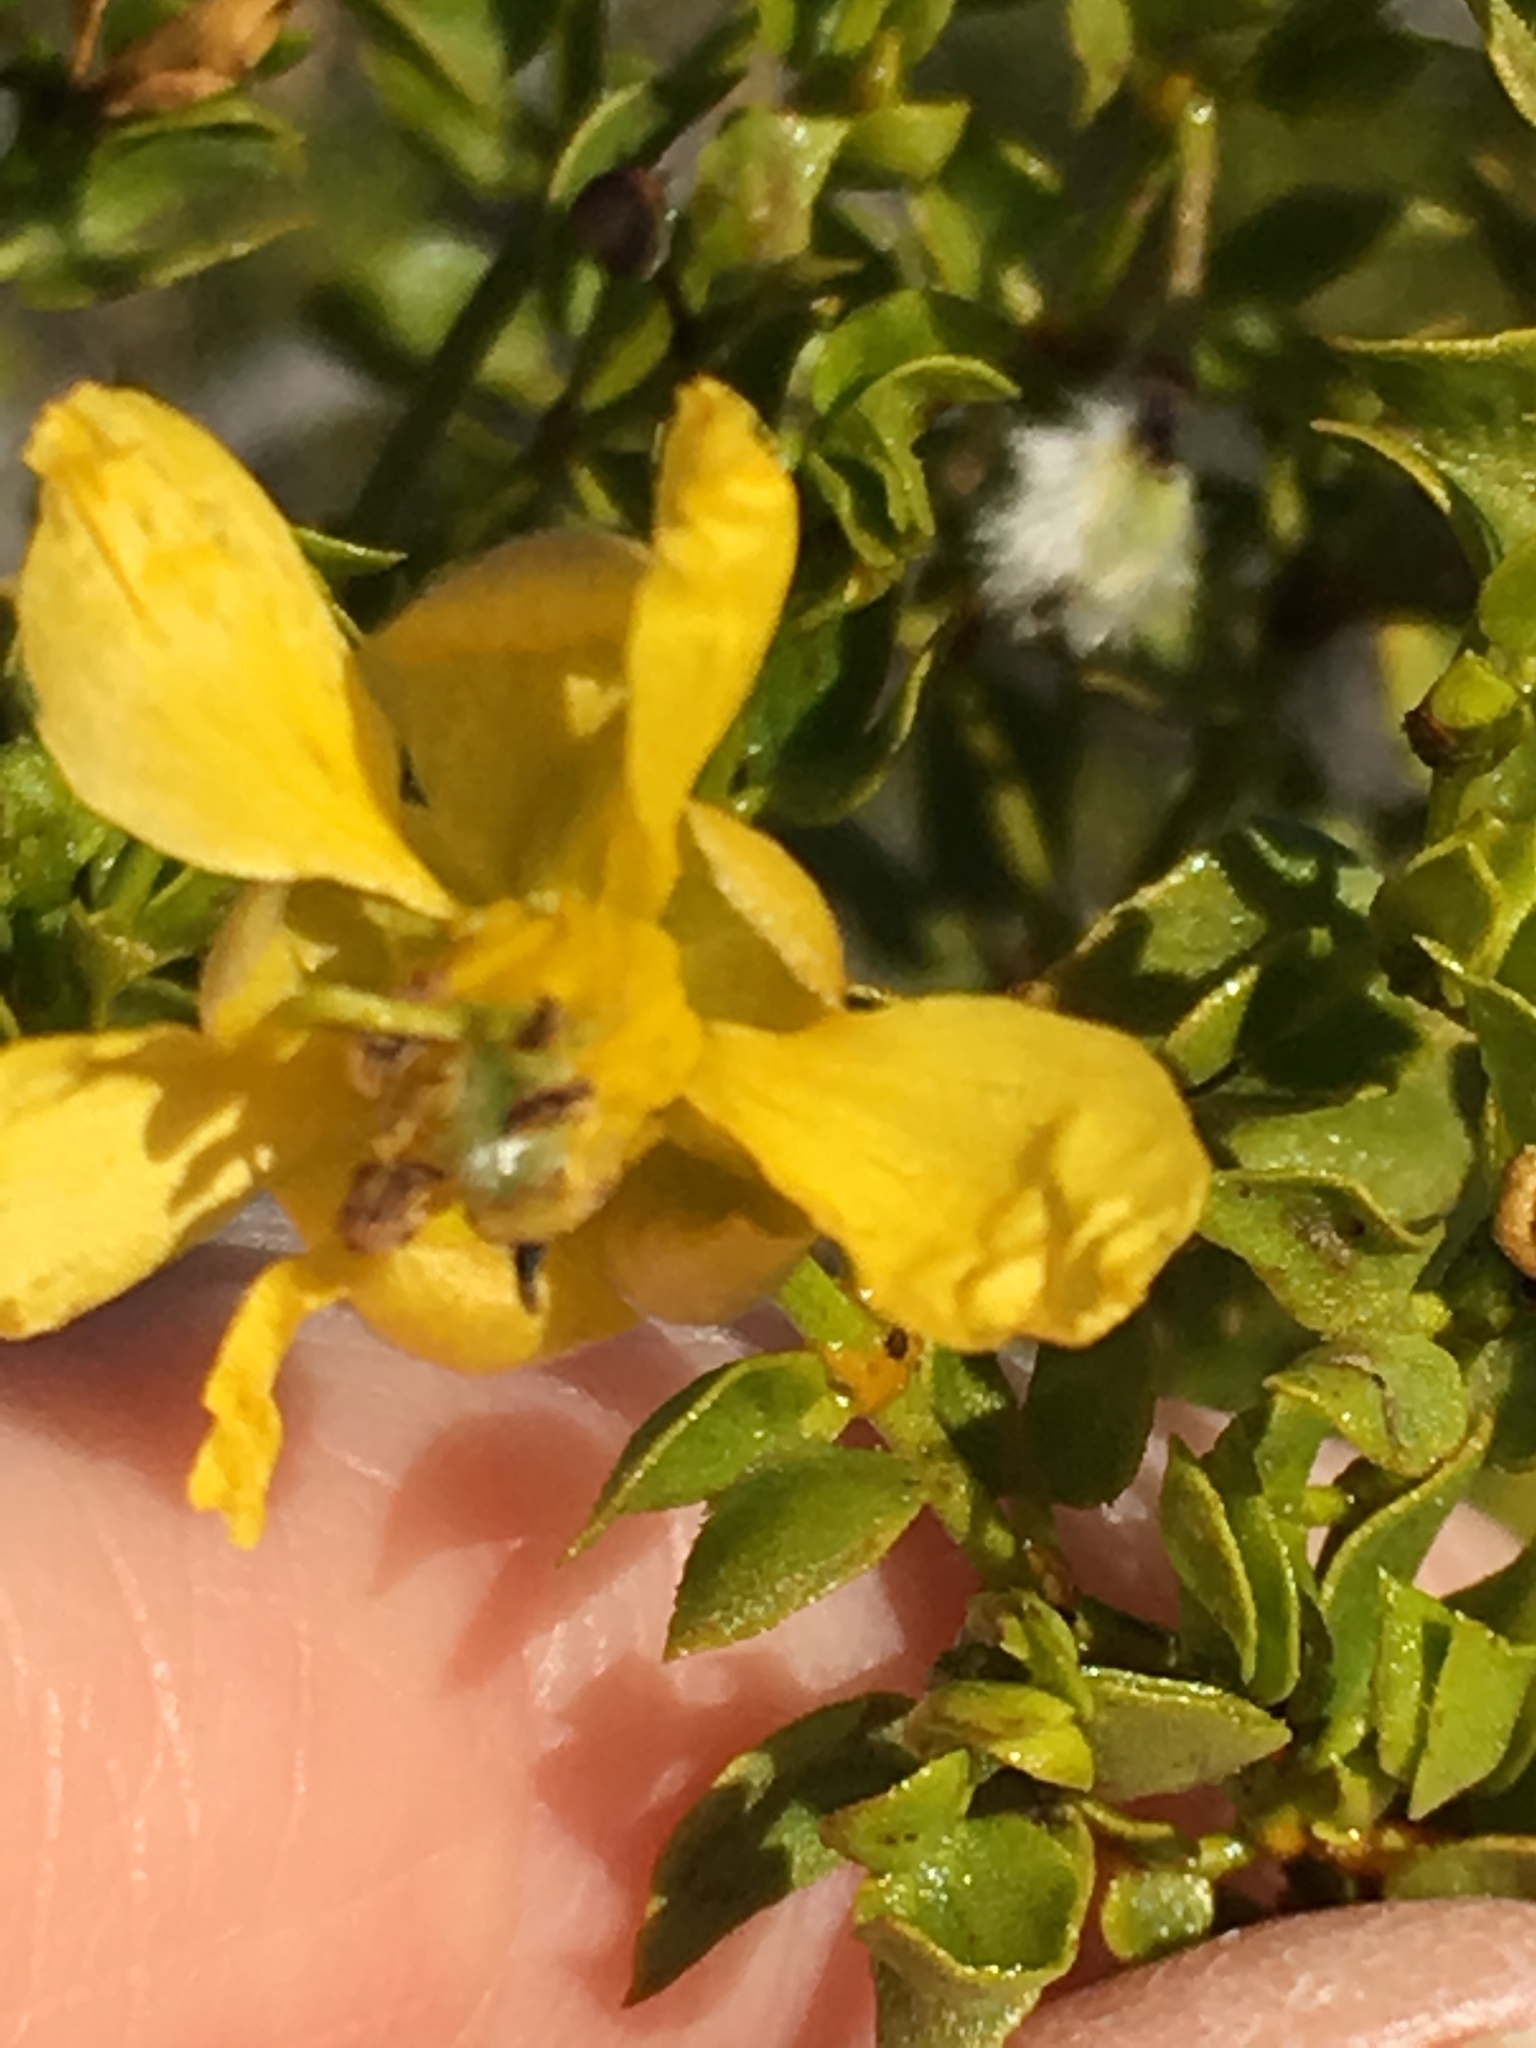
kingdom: Plantae
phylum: Tracheophyta
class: Magnoliopsida
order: Zygophyllales
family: Zygophyllaceae
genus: Larrea
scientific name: Larrea tridentata
